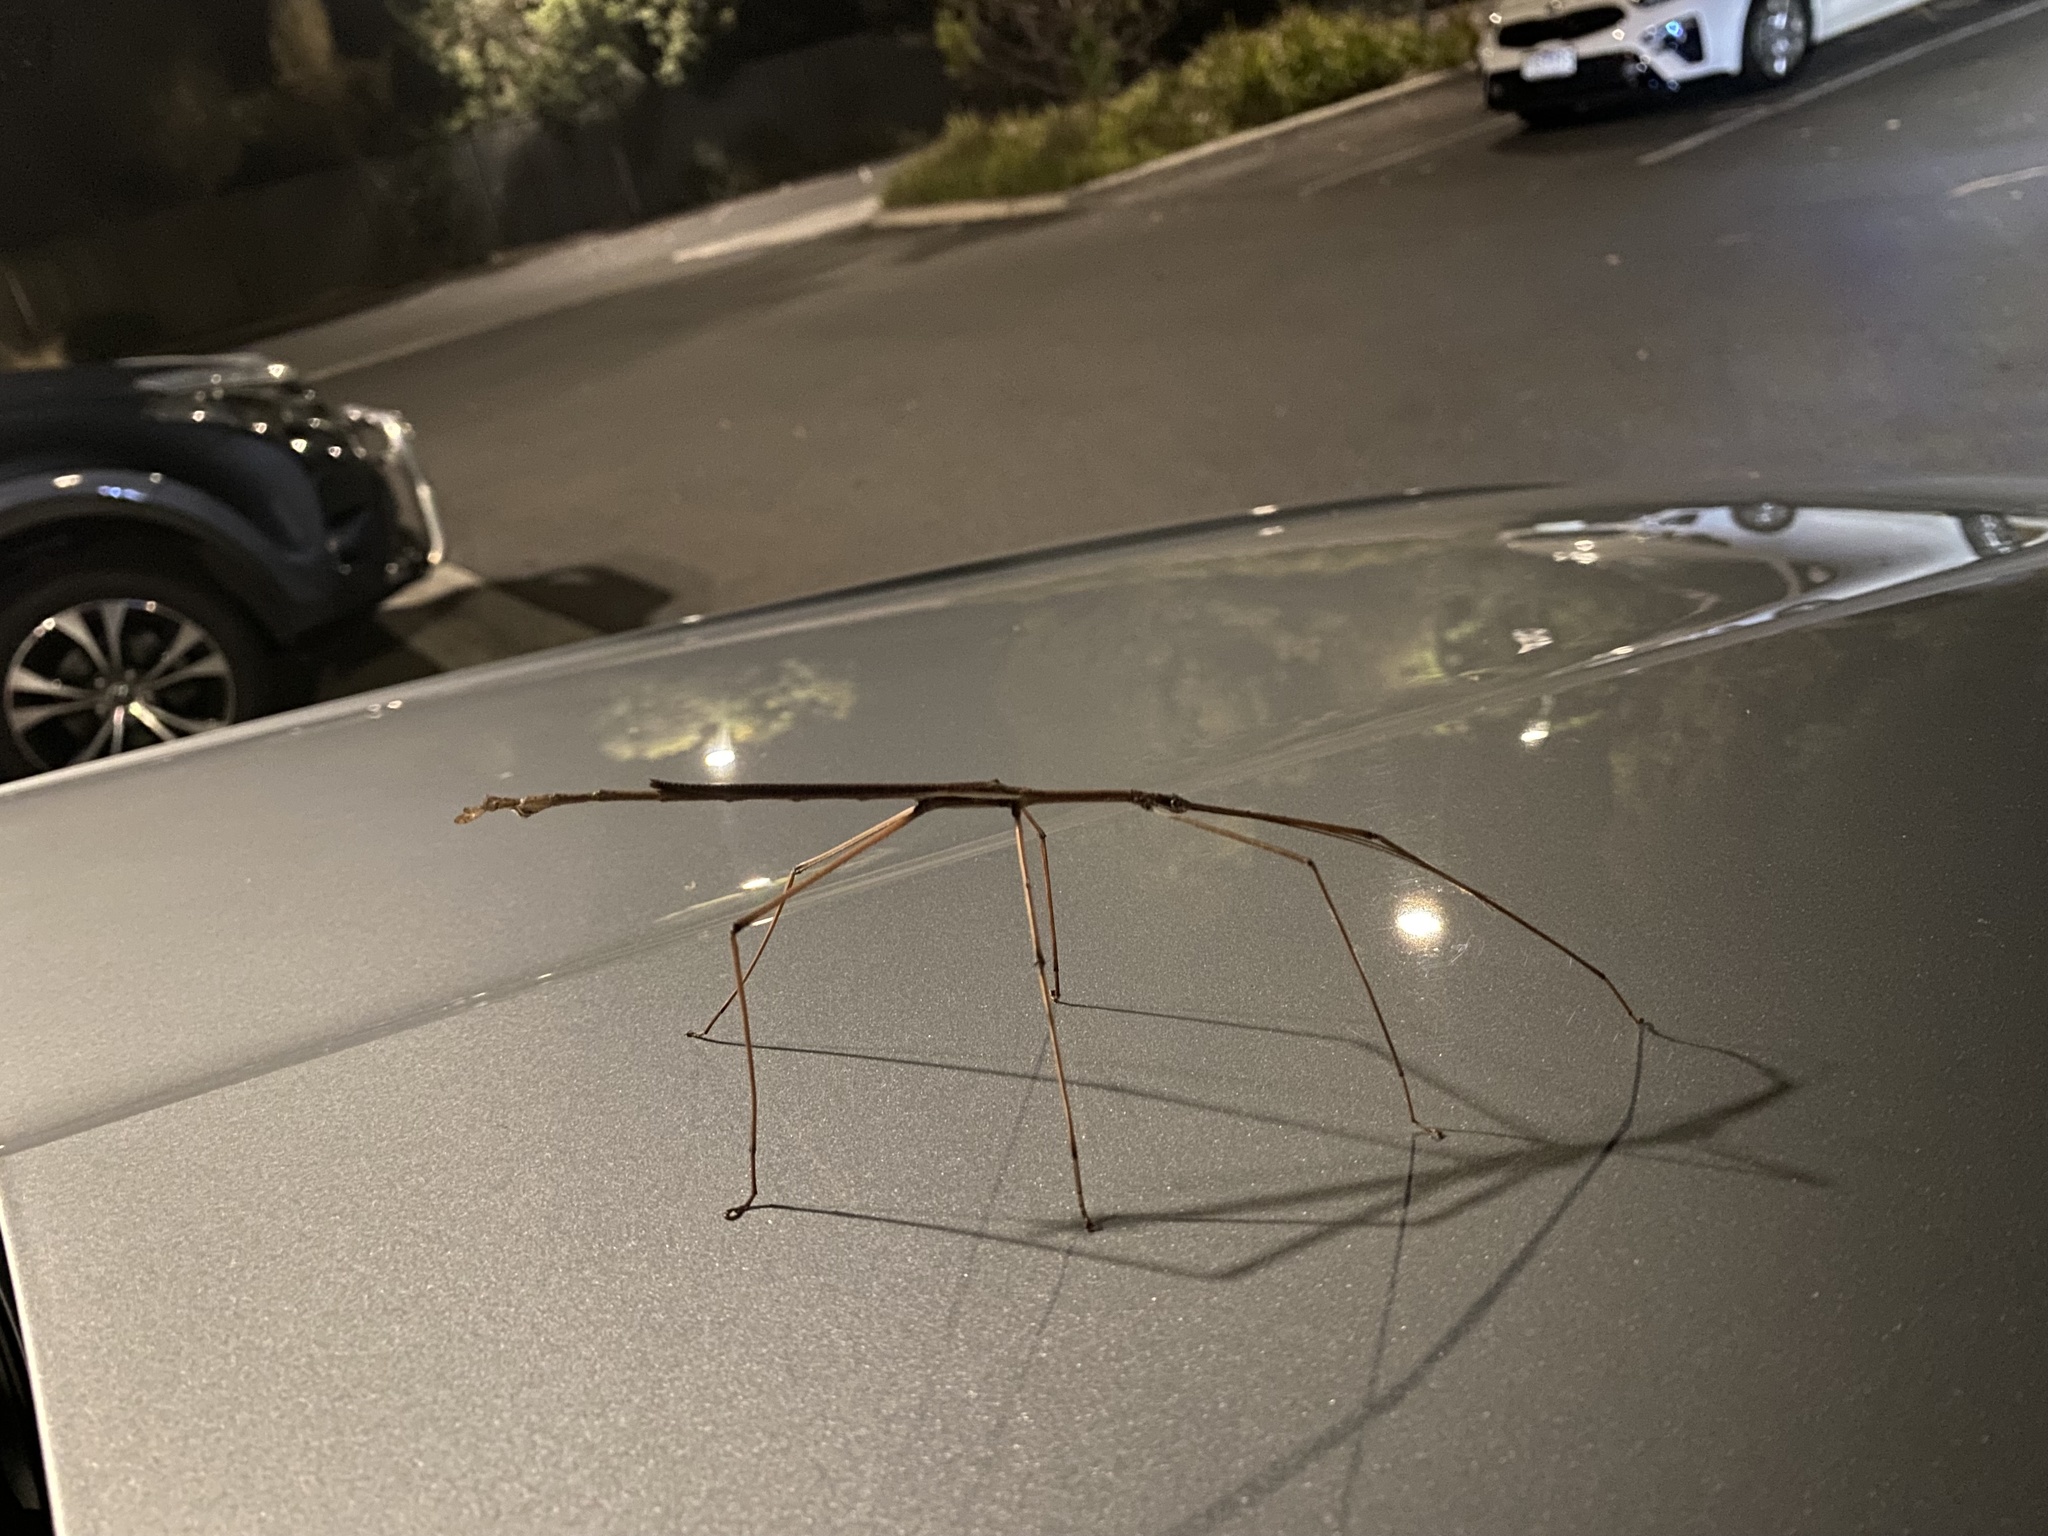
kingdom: Animalia
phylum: Arthropoda
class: Insecta
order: Phasmida
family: Phasmatidae
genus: Ctenomorpha
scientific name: Ctenomorpha marginipennis
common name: Margined-winged stick-insect
